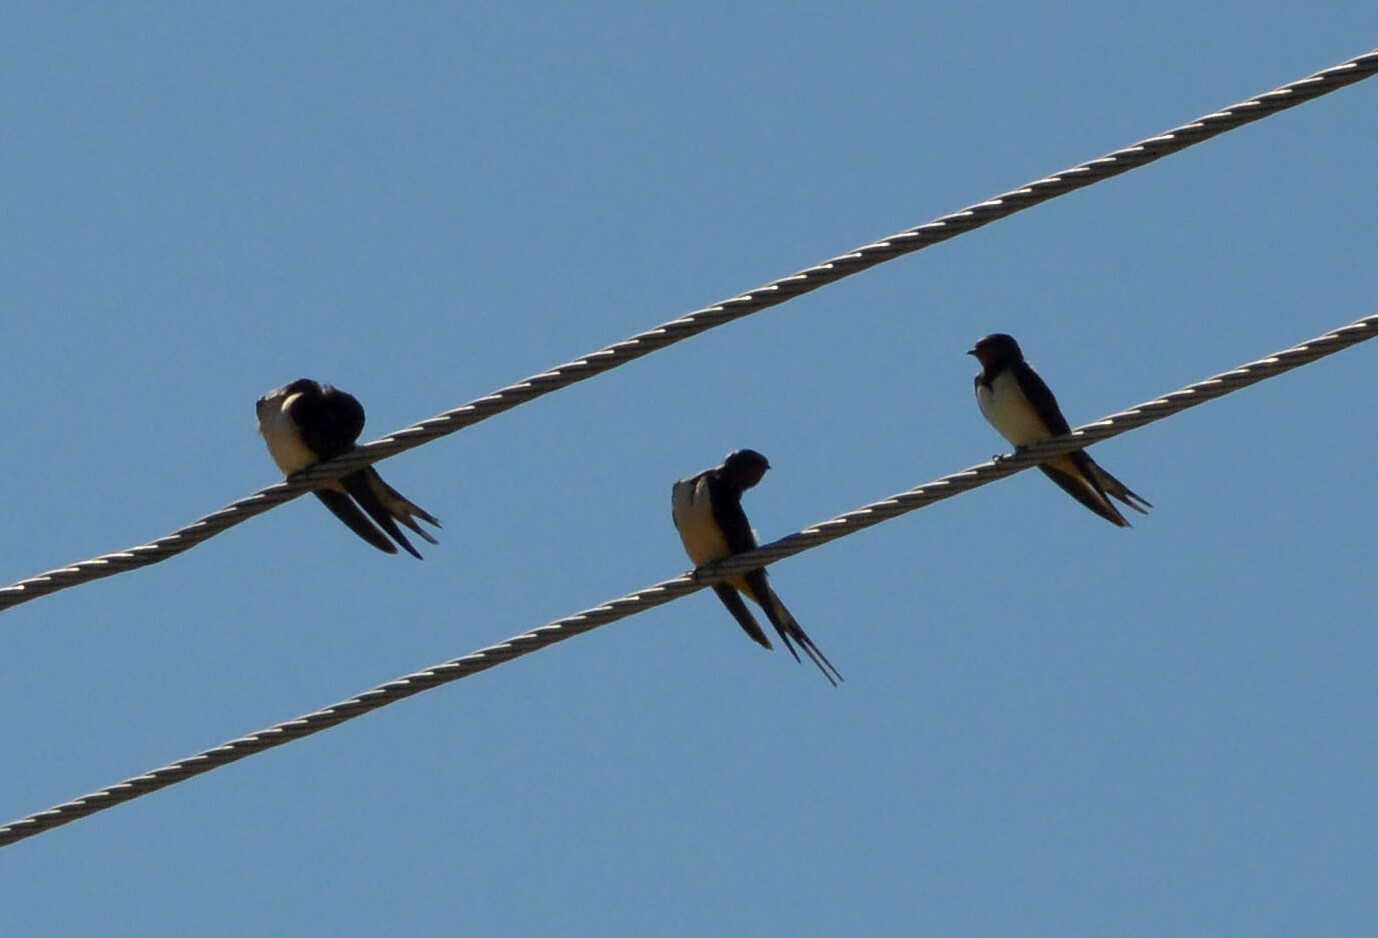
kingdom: Animalia
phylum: Chordata
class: Aves
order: Passeriformes
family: Hirundinidae
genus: Hirundo
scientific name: Hirundo rustica
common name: Barn swallow
